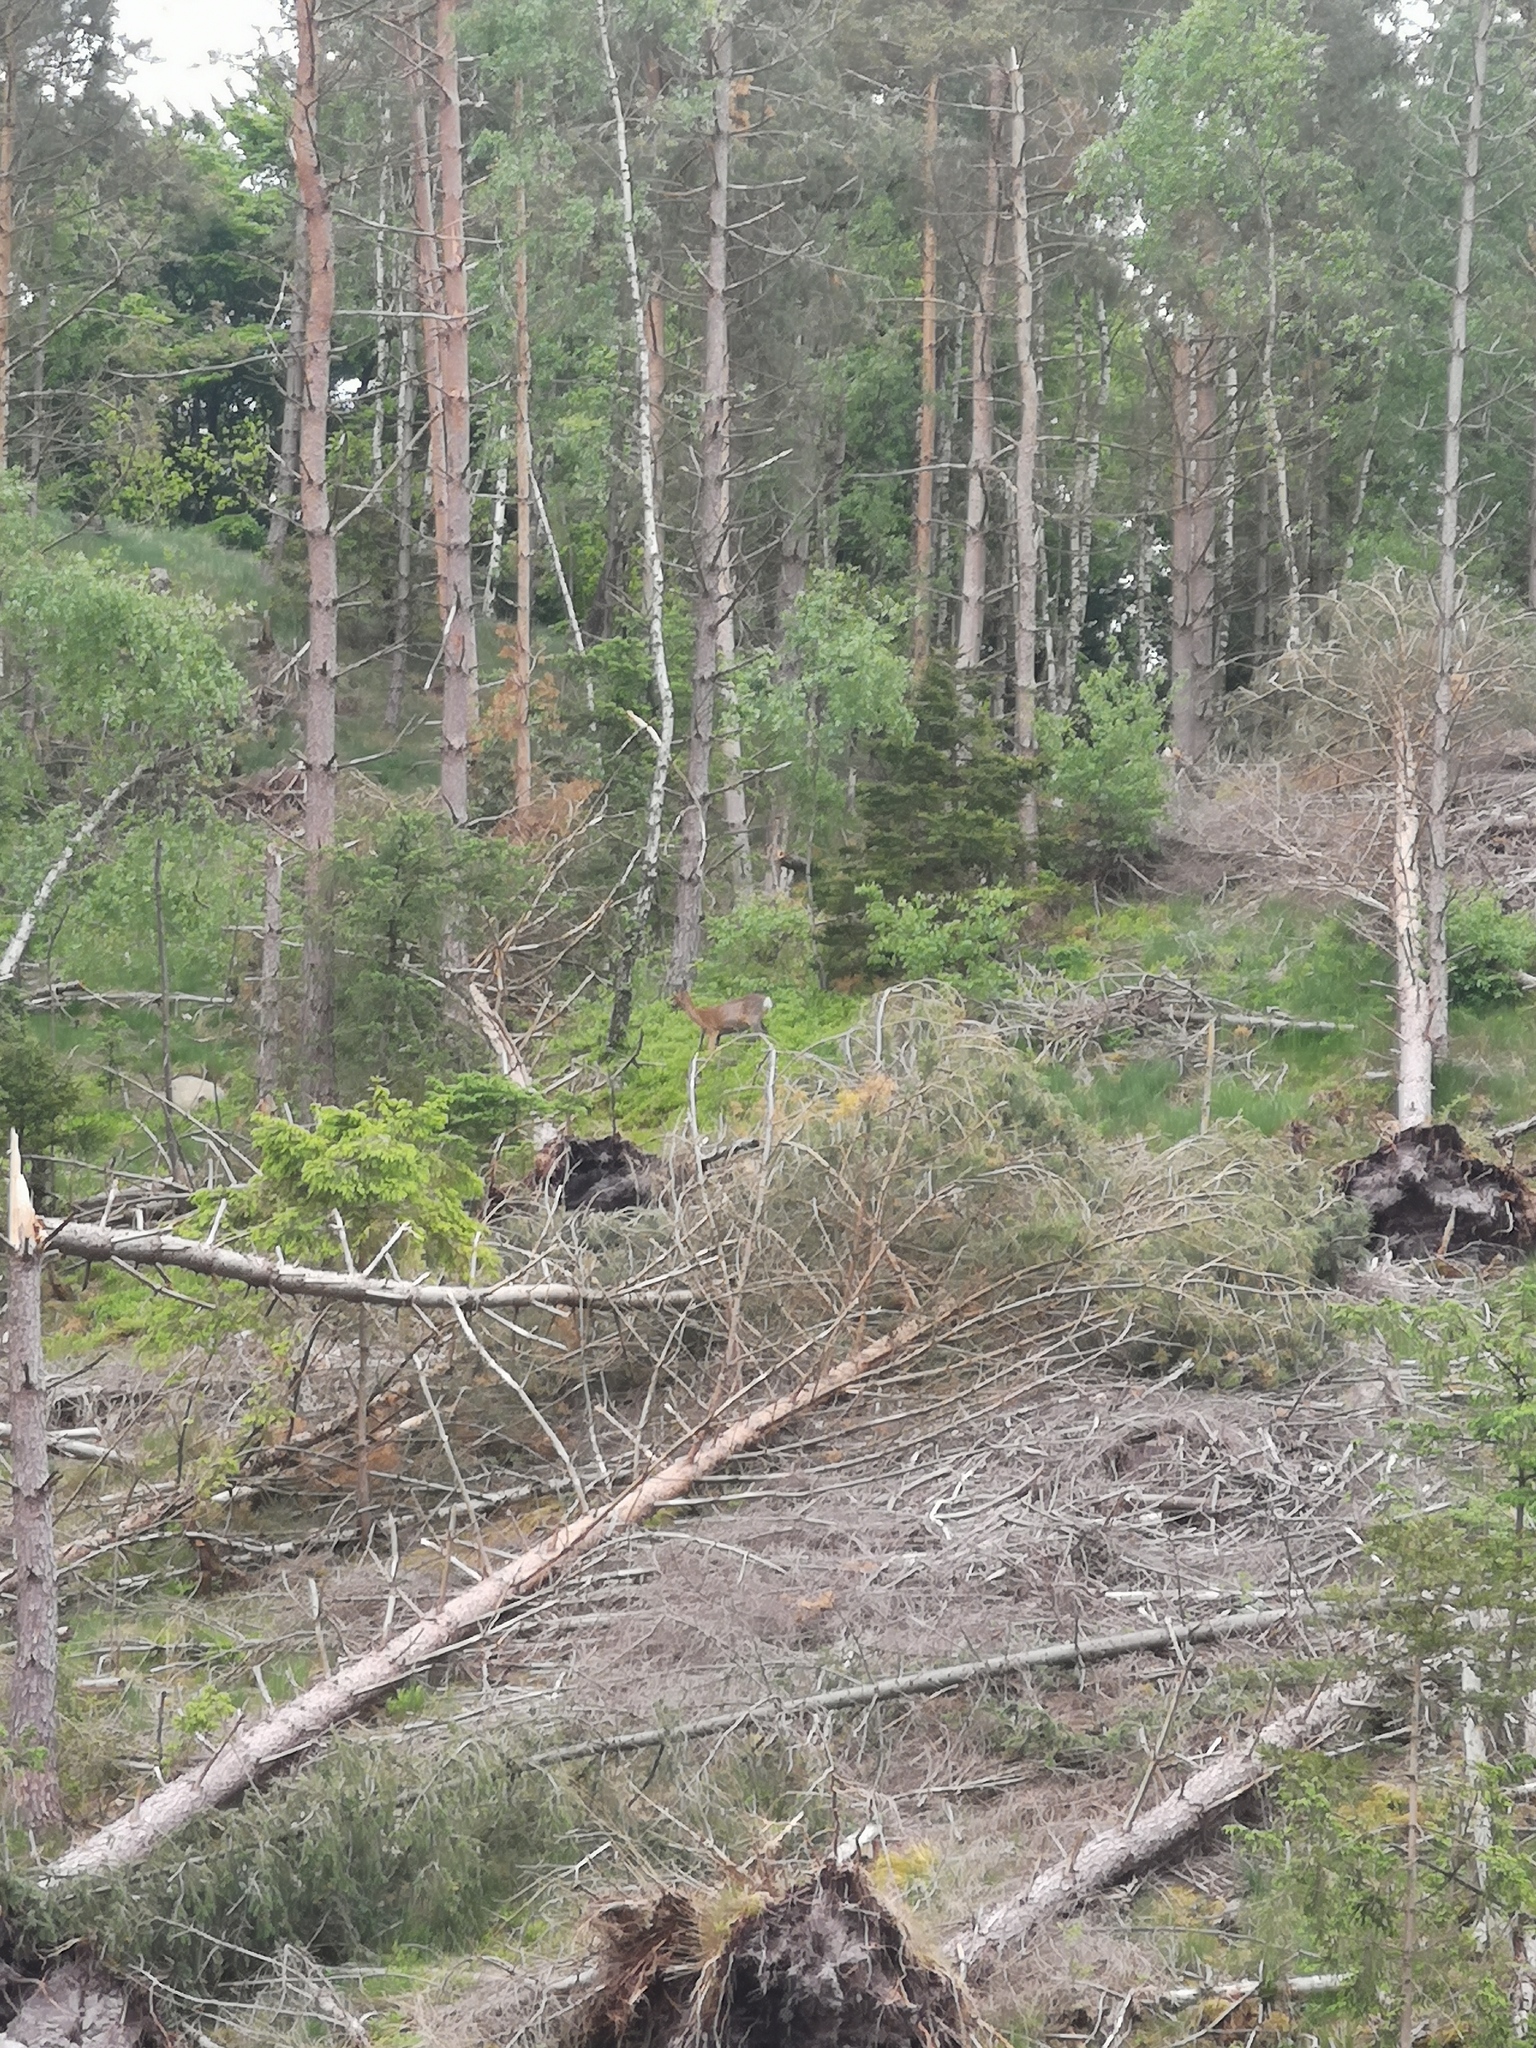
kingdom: Animalia
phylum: Chordata
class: Mammalia
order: Artiodactyla
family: Cervidae
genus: Capreolus
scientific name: Capreolus capreolus
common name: Western roe deer
